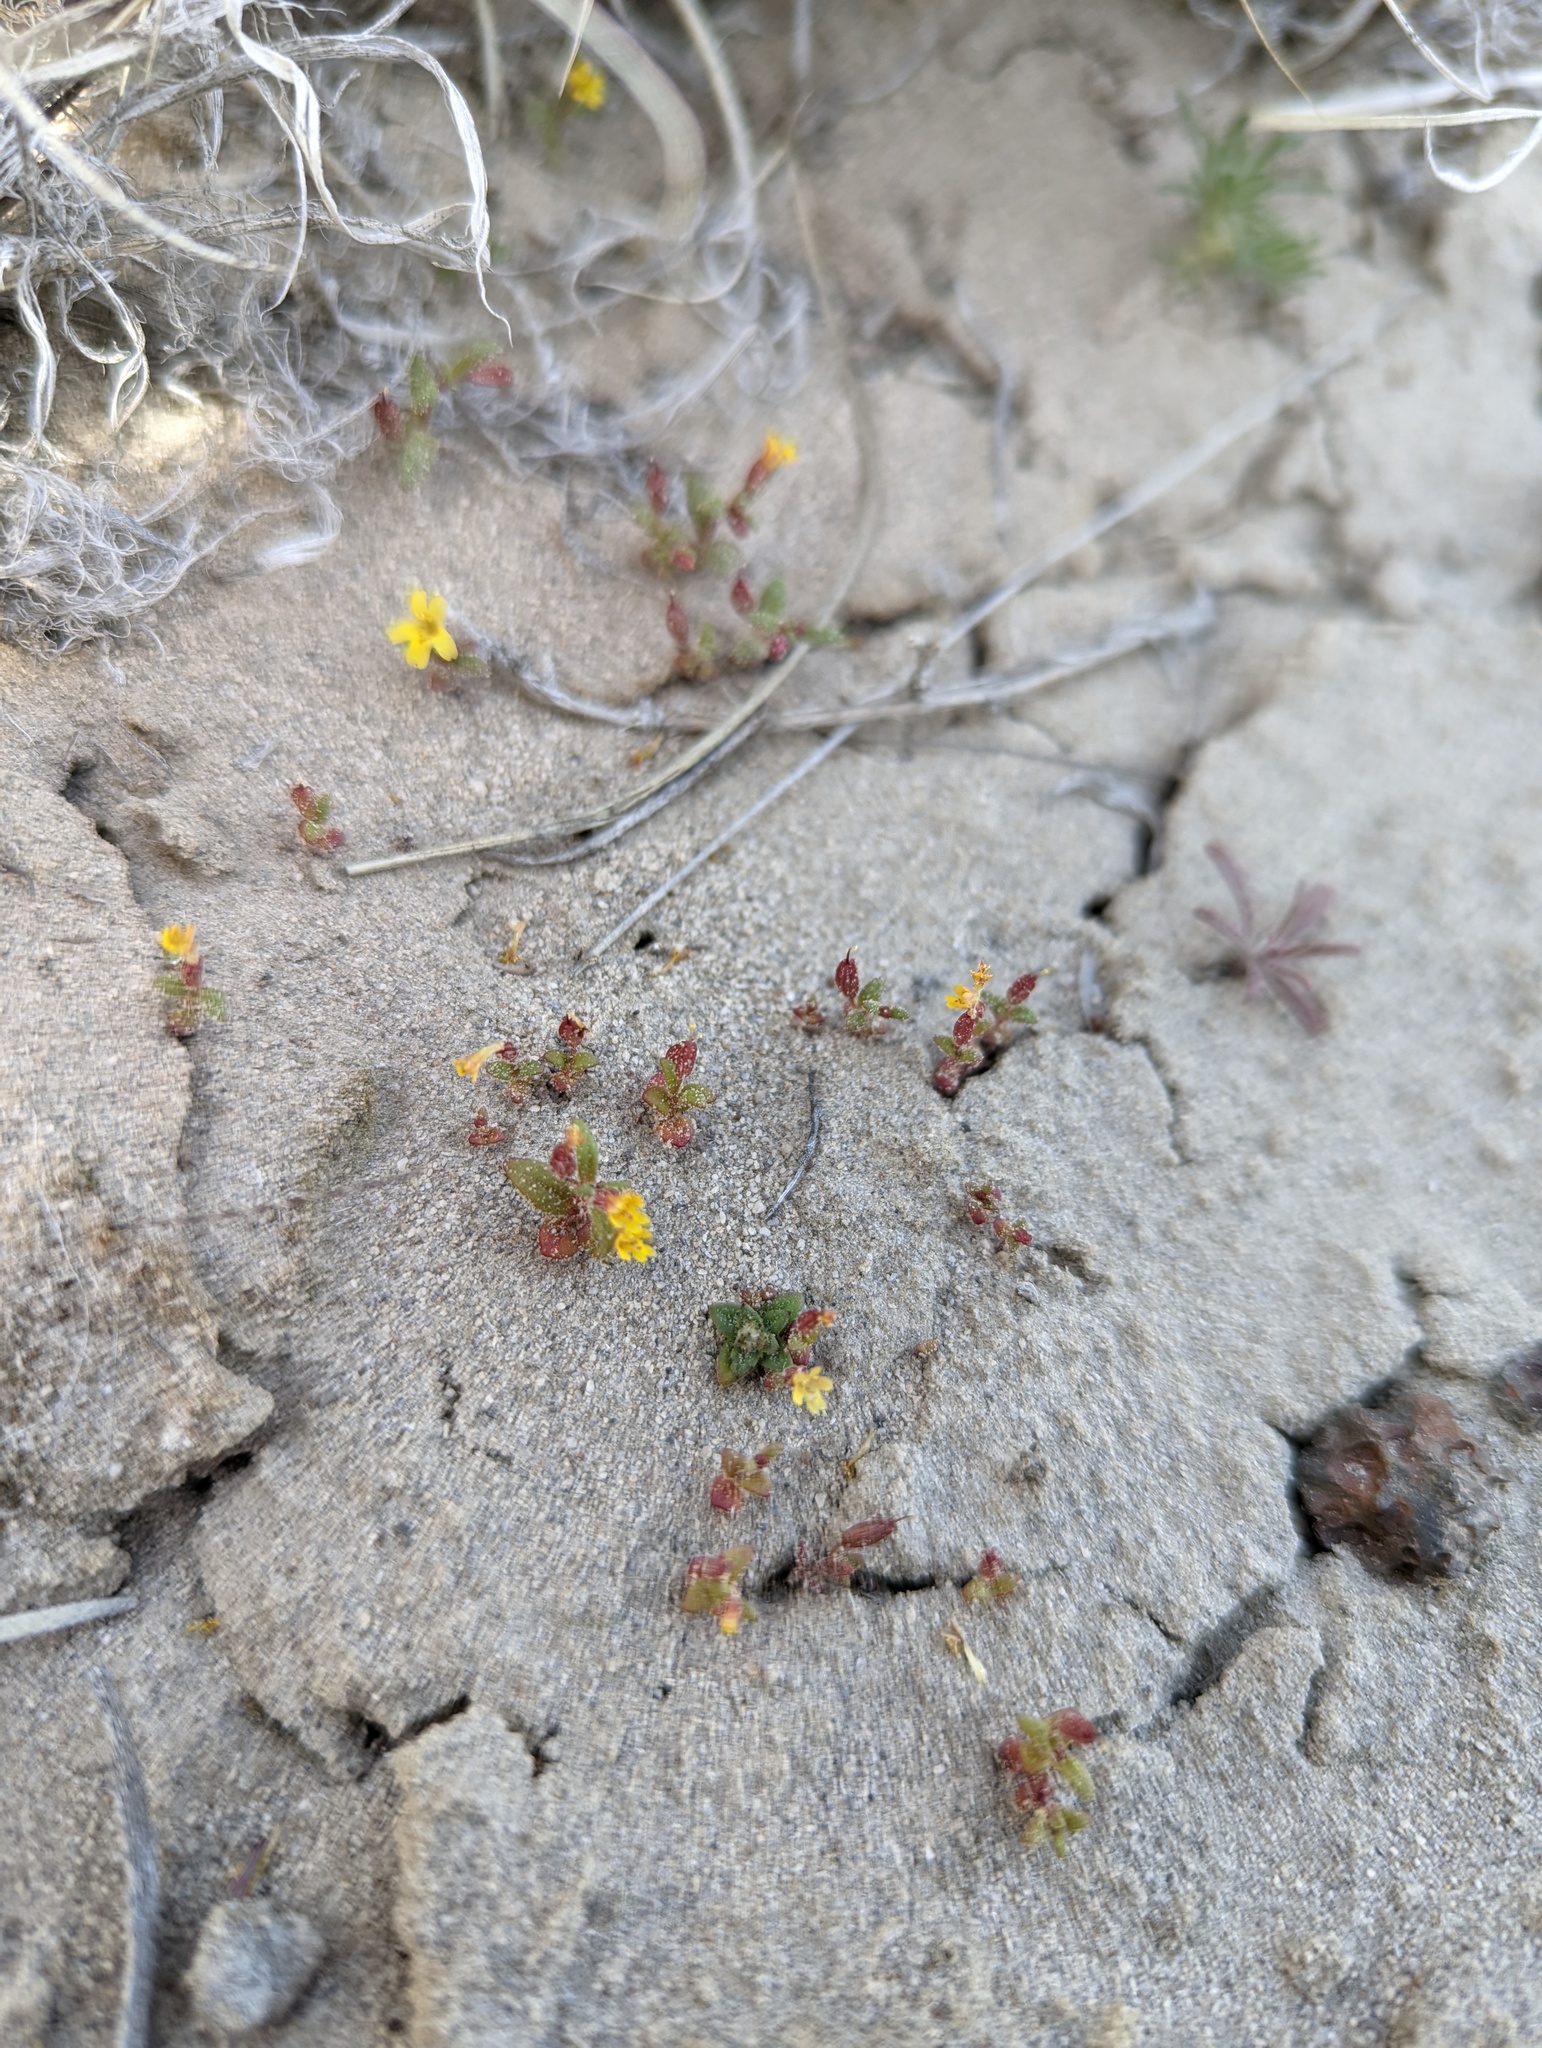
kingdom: Plantae
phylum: Tracheophyta
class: Magnoliopsida
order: Lamiales
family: Phrymaceae
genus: Erythranthe
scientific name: Erythranthe suksdorfii
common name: Suksdorf's monkeyflower
